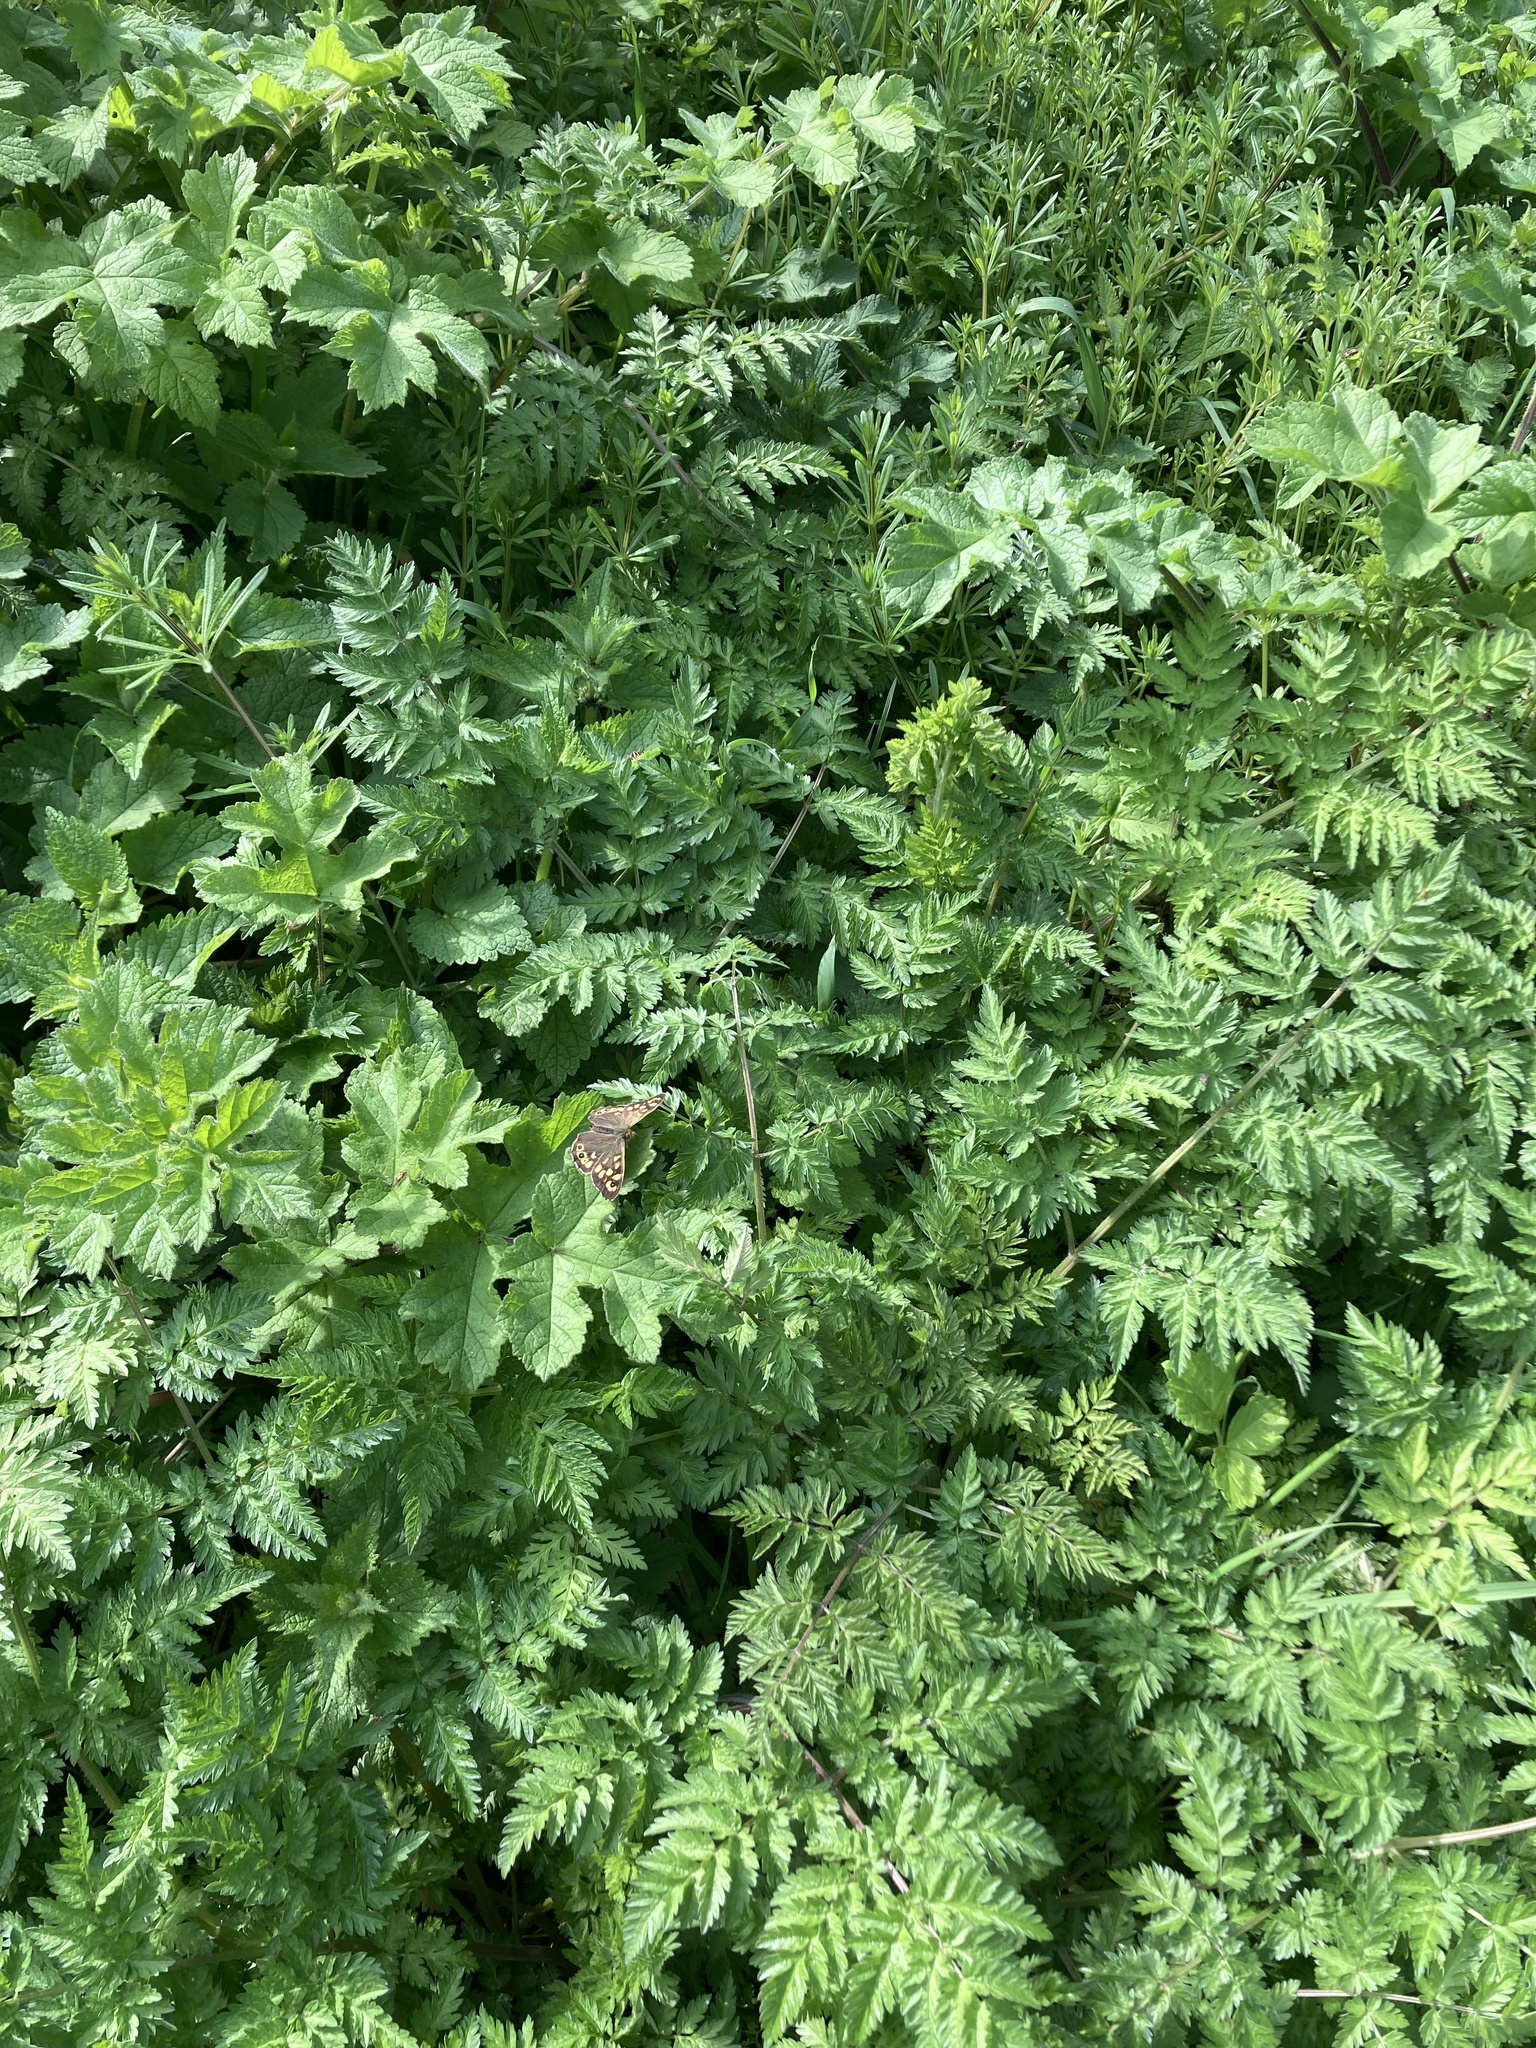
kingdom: Animalia
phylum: Arthropoda
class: Insecta
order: Lepidoptera
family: Nymphalidae
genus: Pararge
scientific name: Pararge aegeria
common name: Speckled wood
